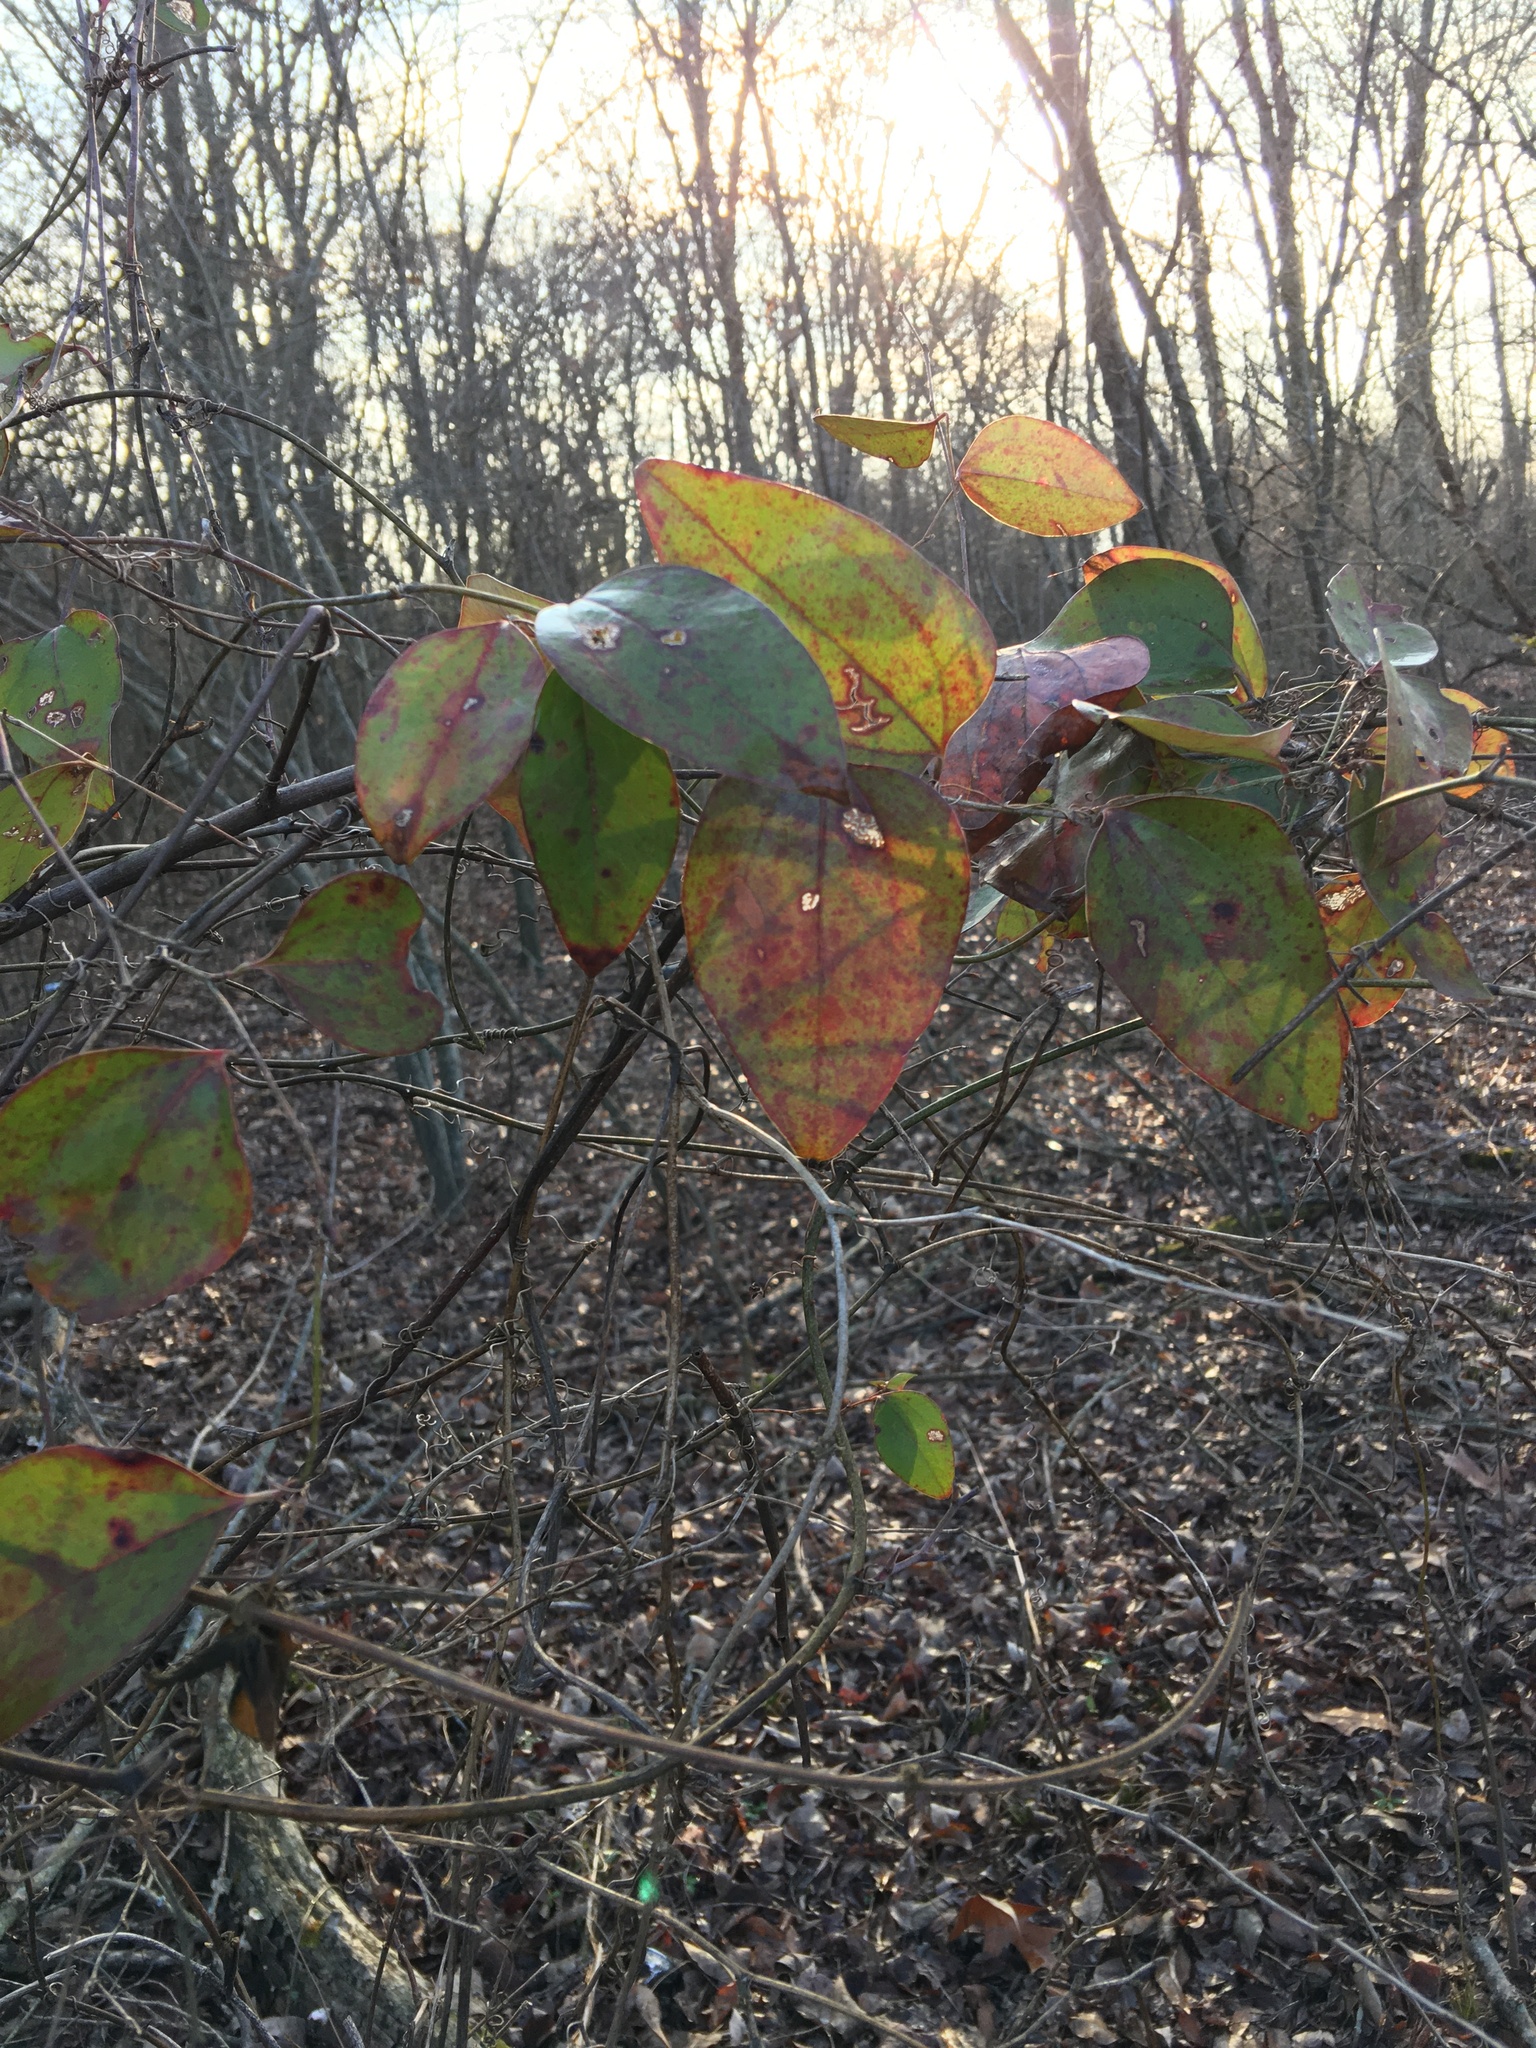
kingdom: Plantae
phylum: Tracheophyta
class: Liliopsida
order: Liliales
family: Smilacaceae
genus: Smilax
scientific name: Smilax glauca
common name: Cat greenbrier
